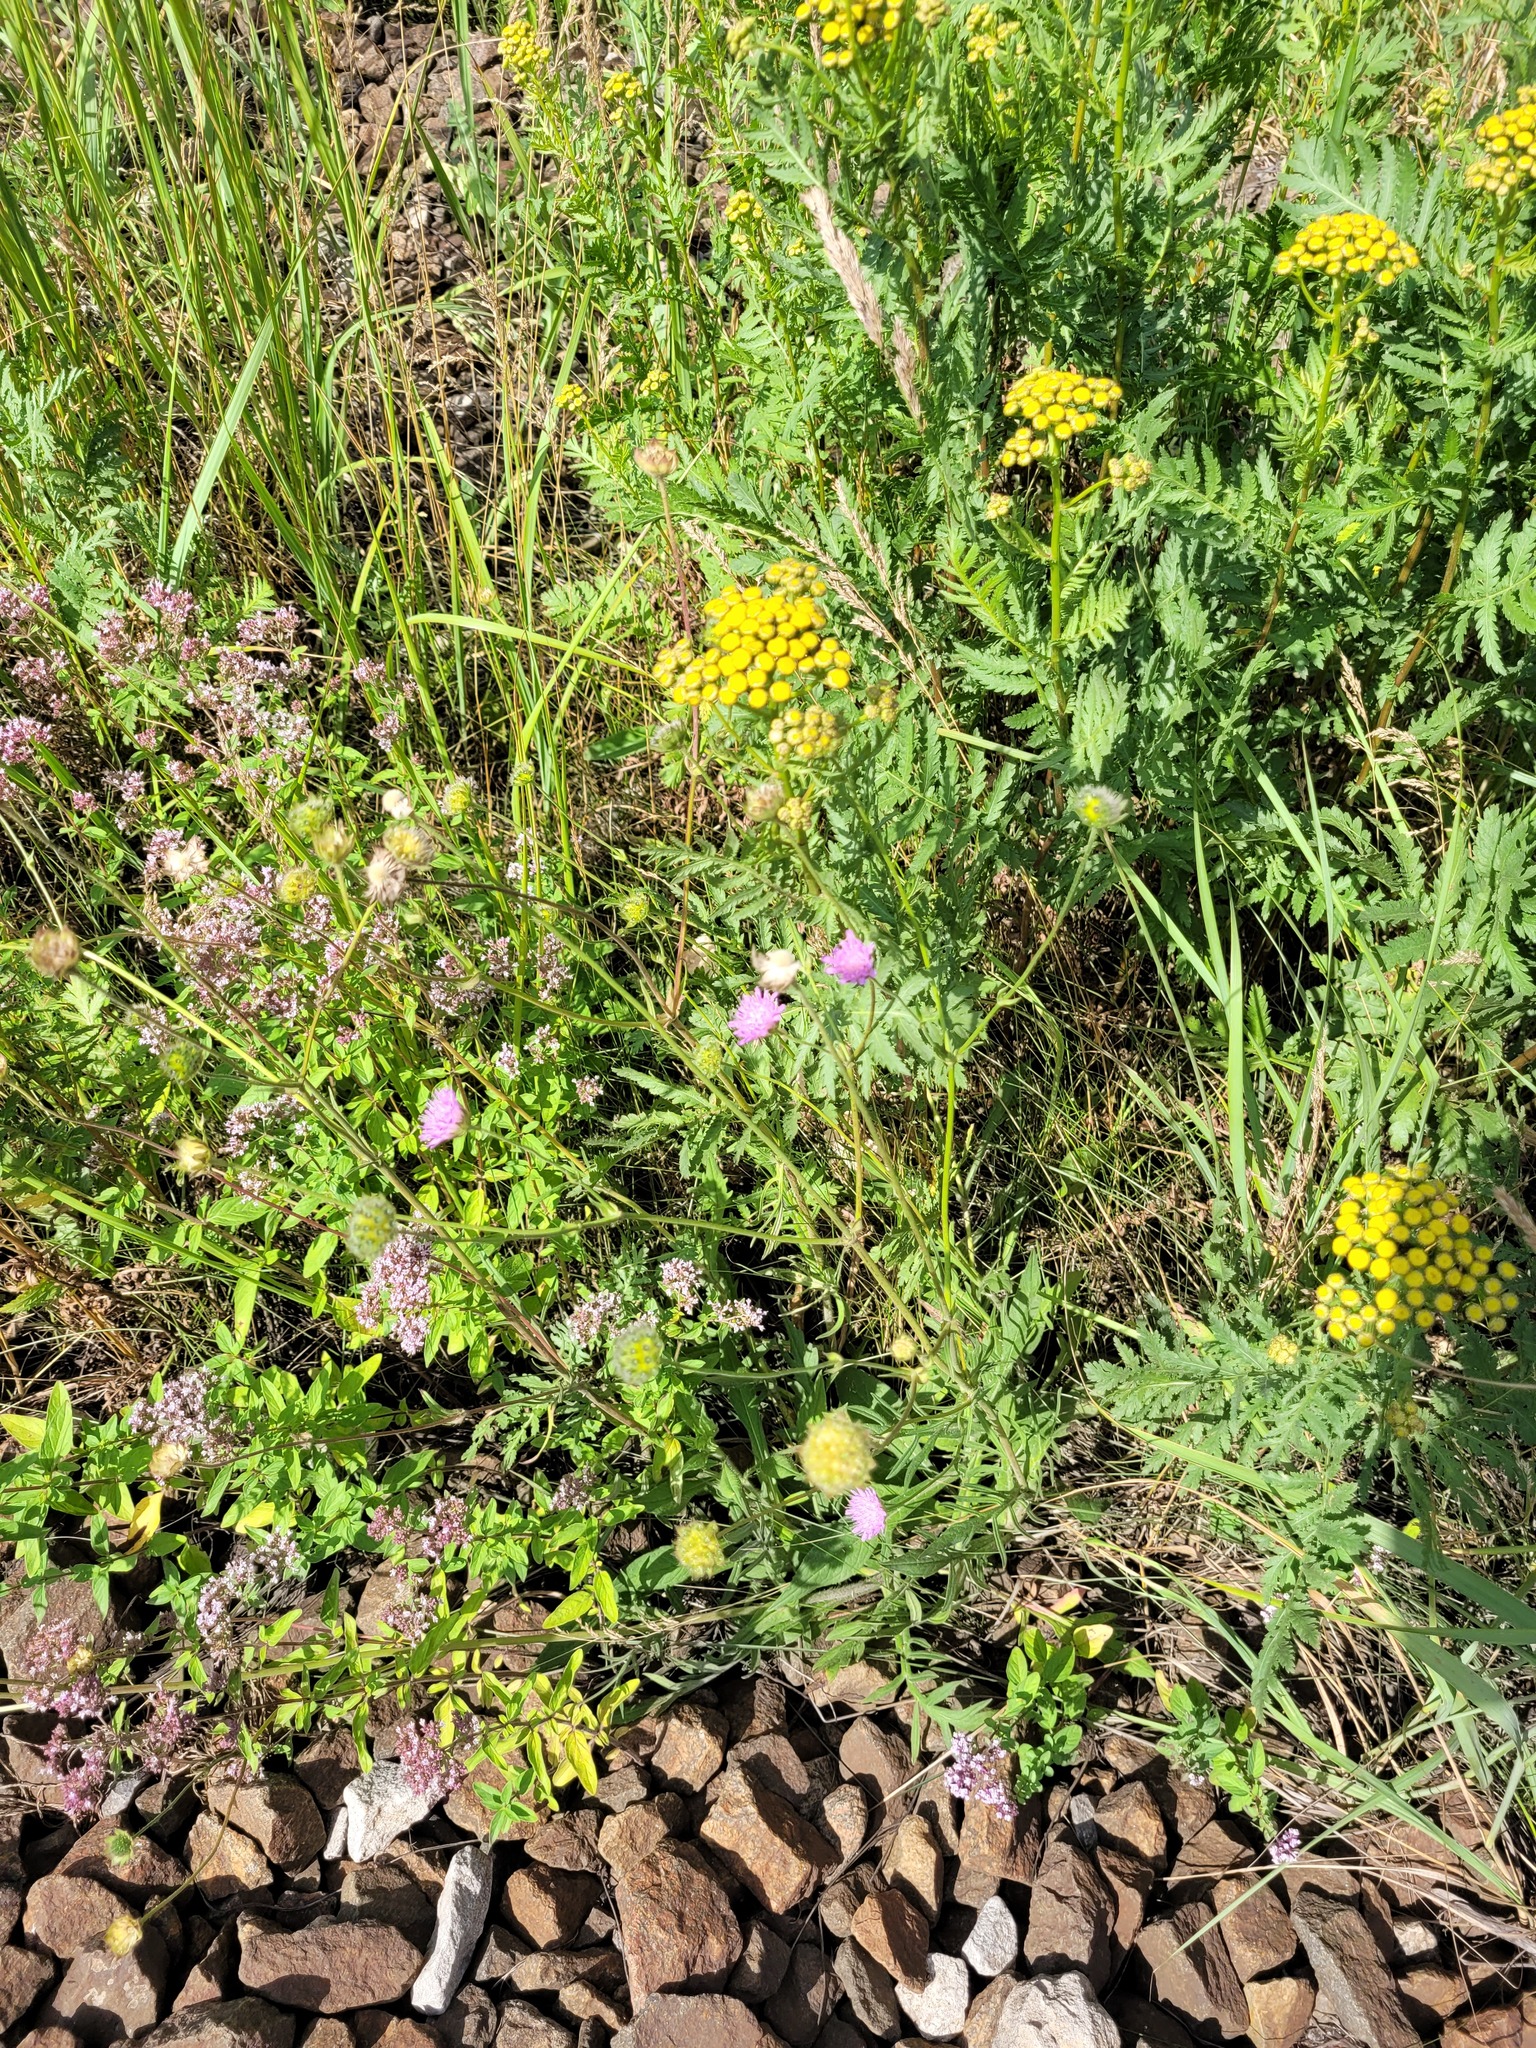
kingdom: Plantae
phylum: Tracheophyta
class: Magnoliopsida
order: Dipsacales
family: Caprifoliaceae
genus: Knautia
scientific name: Knautia arvensis
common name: Field scabiosa
